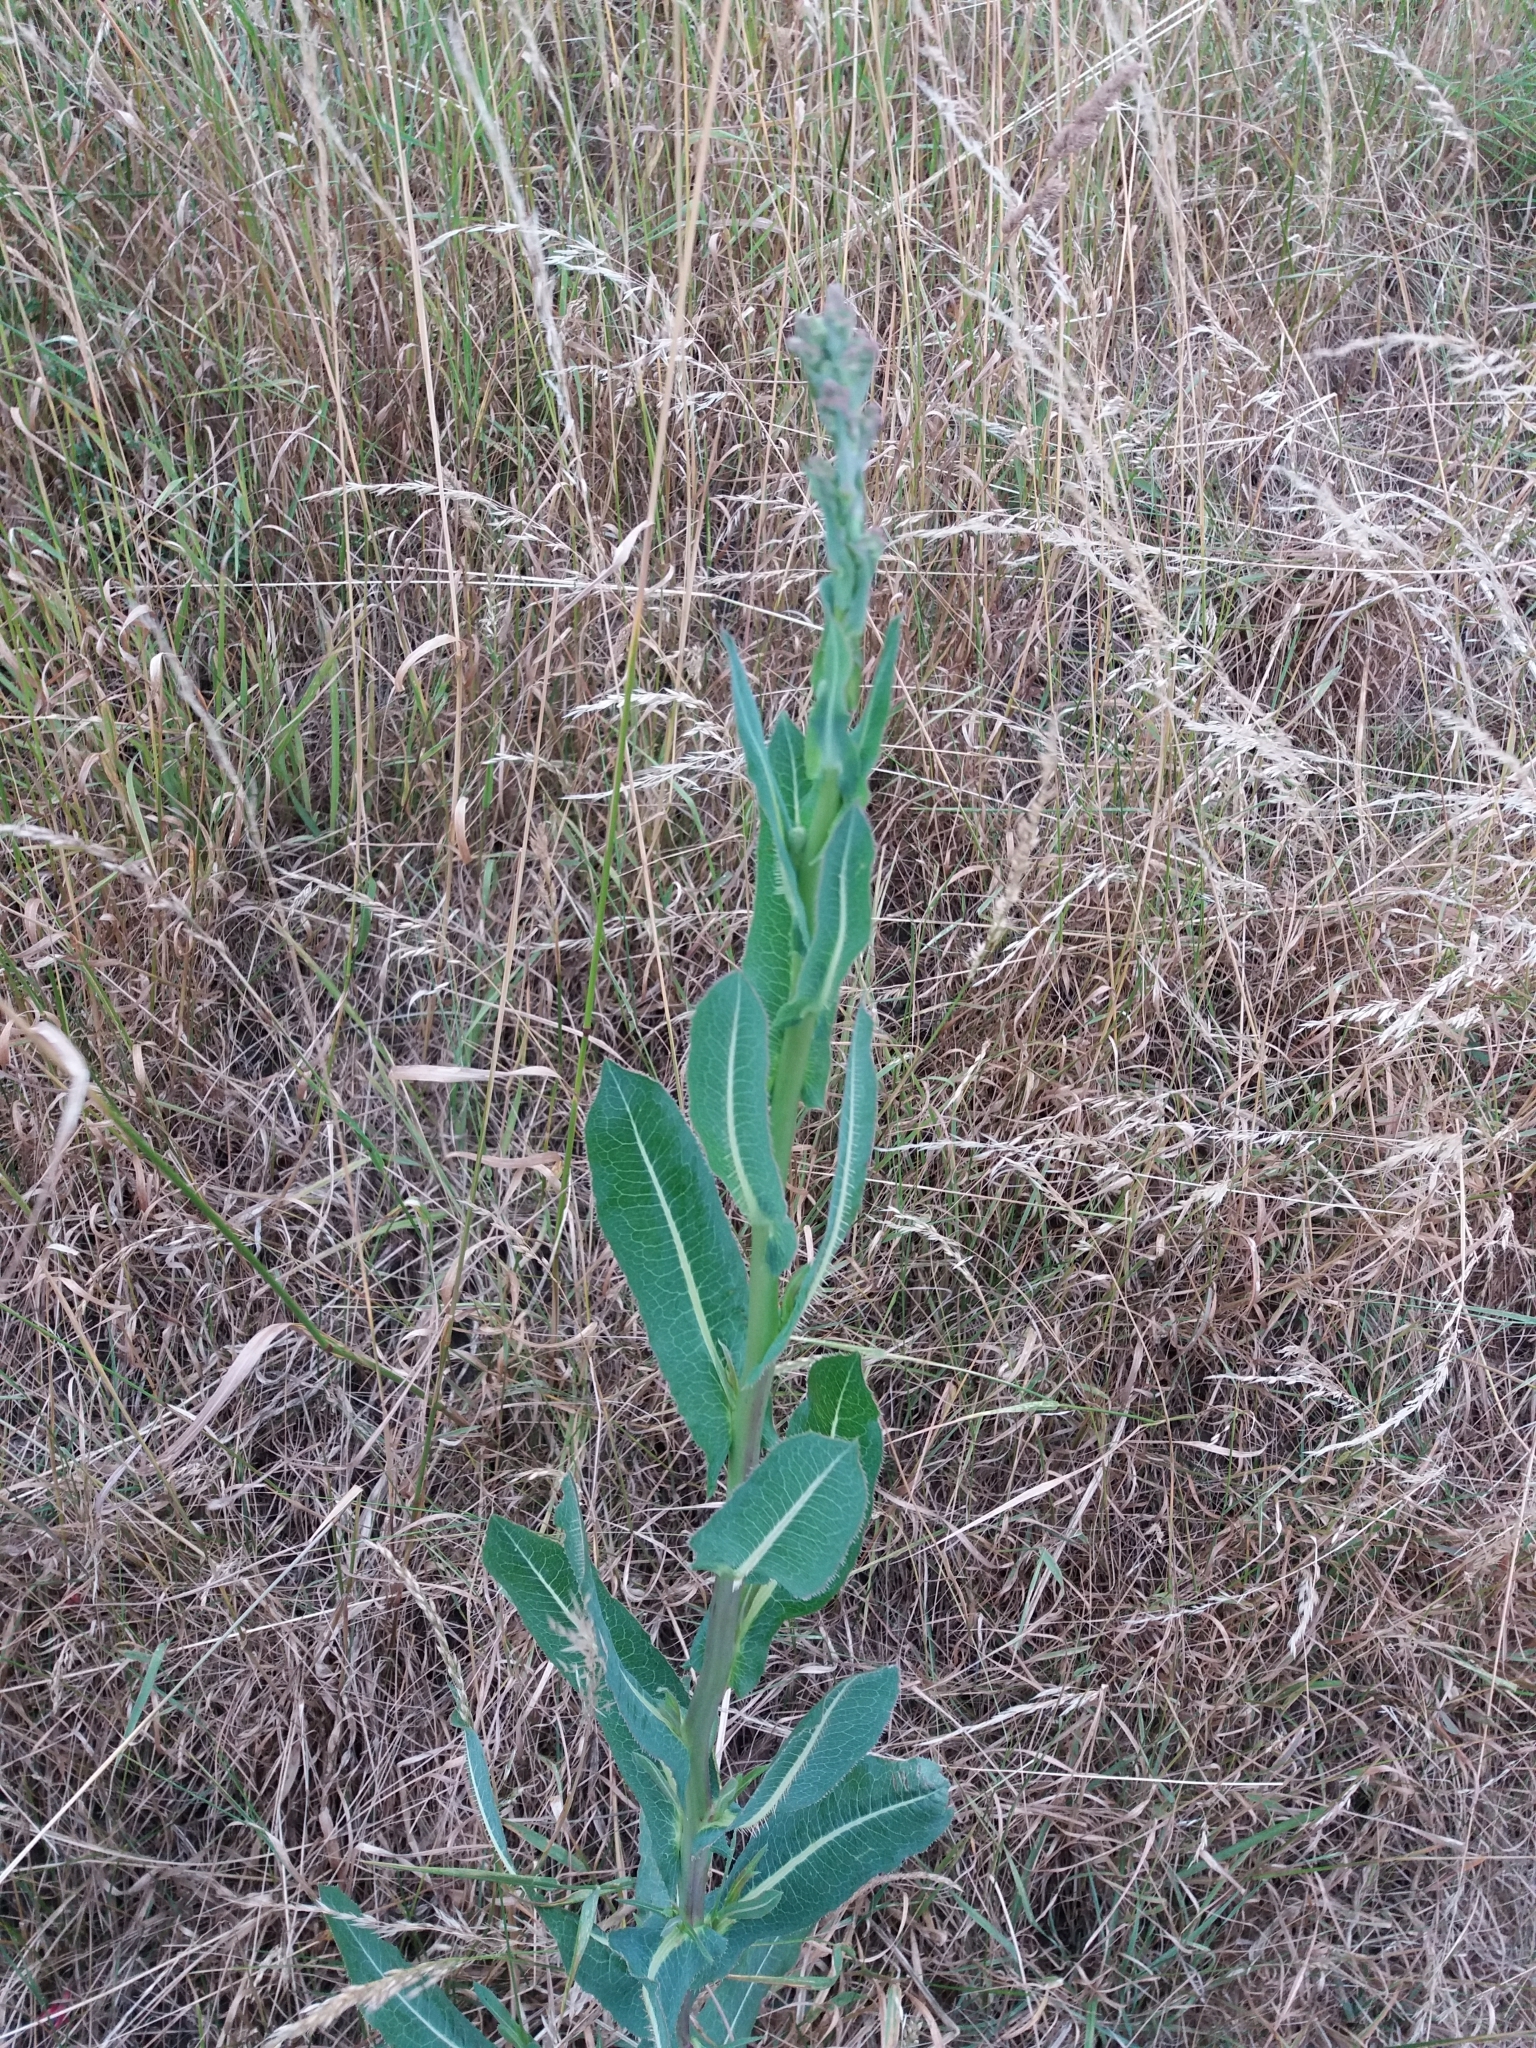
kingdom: Plantae
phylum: Tracheophyta
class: Magnoliopsida
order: Asterales
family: Asteraceae
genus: Lactuca
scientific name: Lactuca serriola
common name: Prickly lettuce
